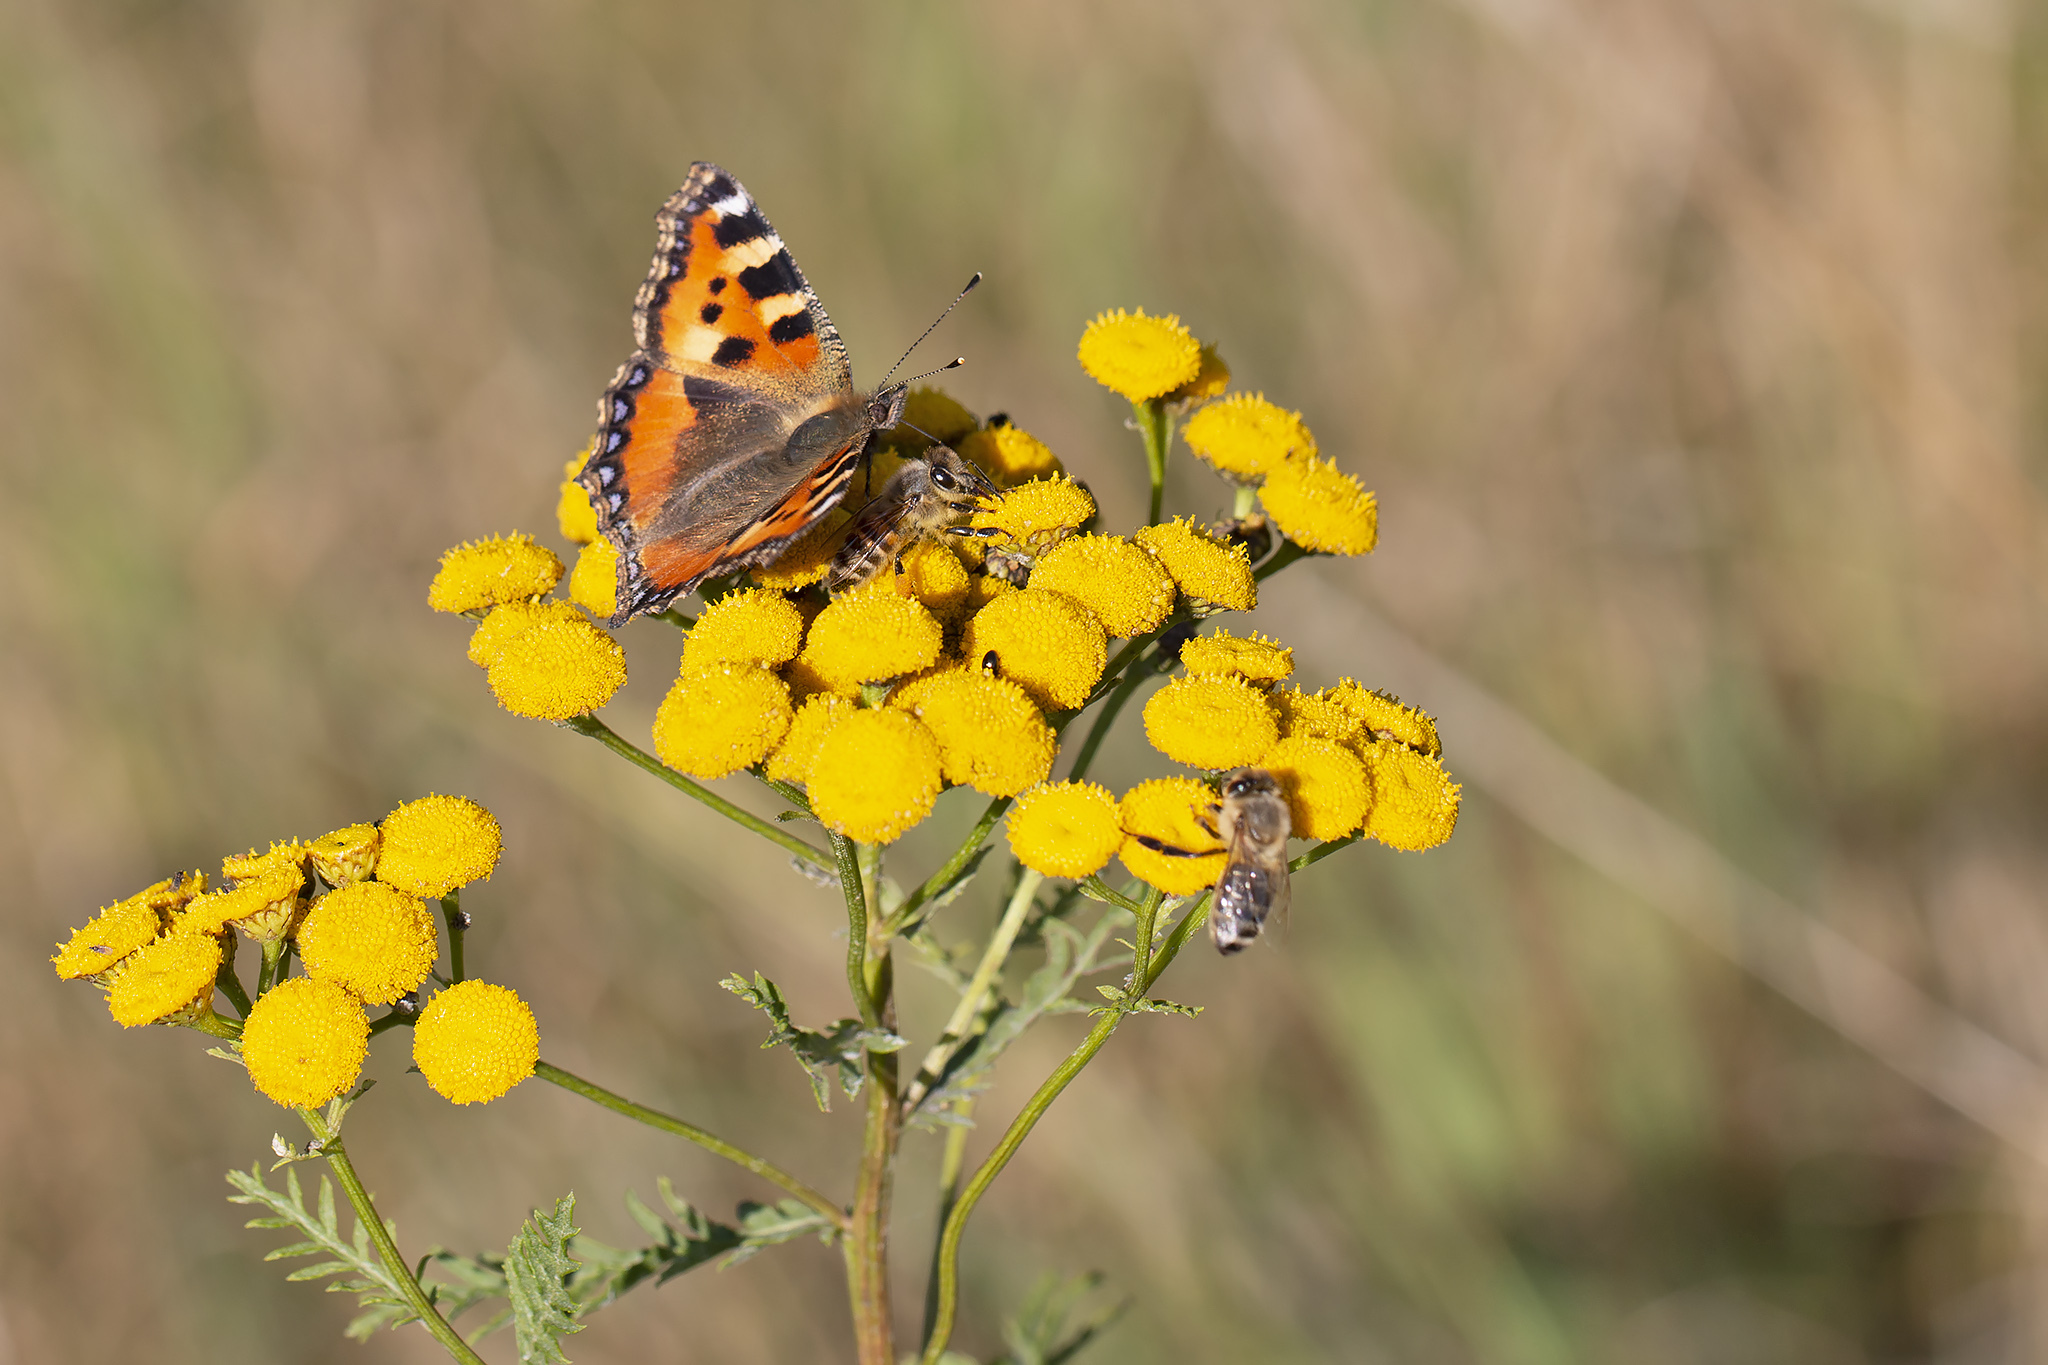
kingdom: Animalia
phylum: Arthropoda
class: Insecta
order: Lepidoptera
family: Nymphalidae
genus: Aglais
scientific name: Aglais urticae
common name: Small tortoiseshell
